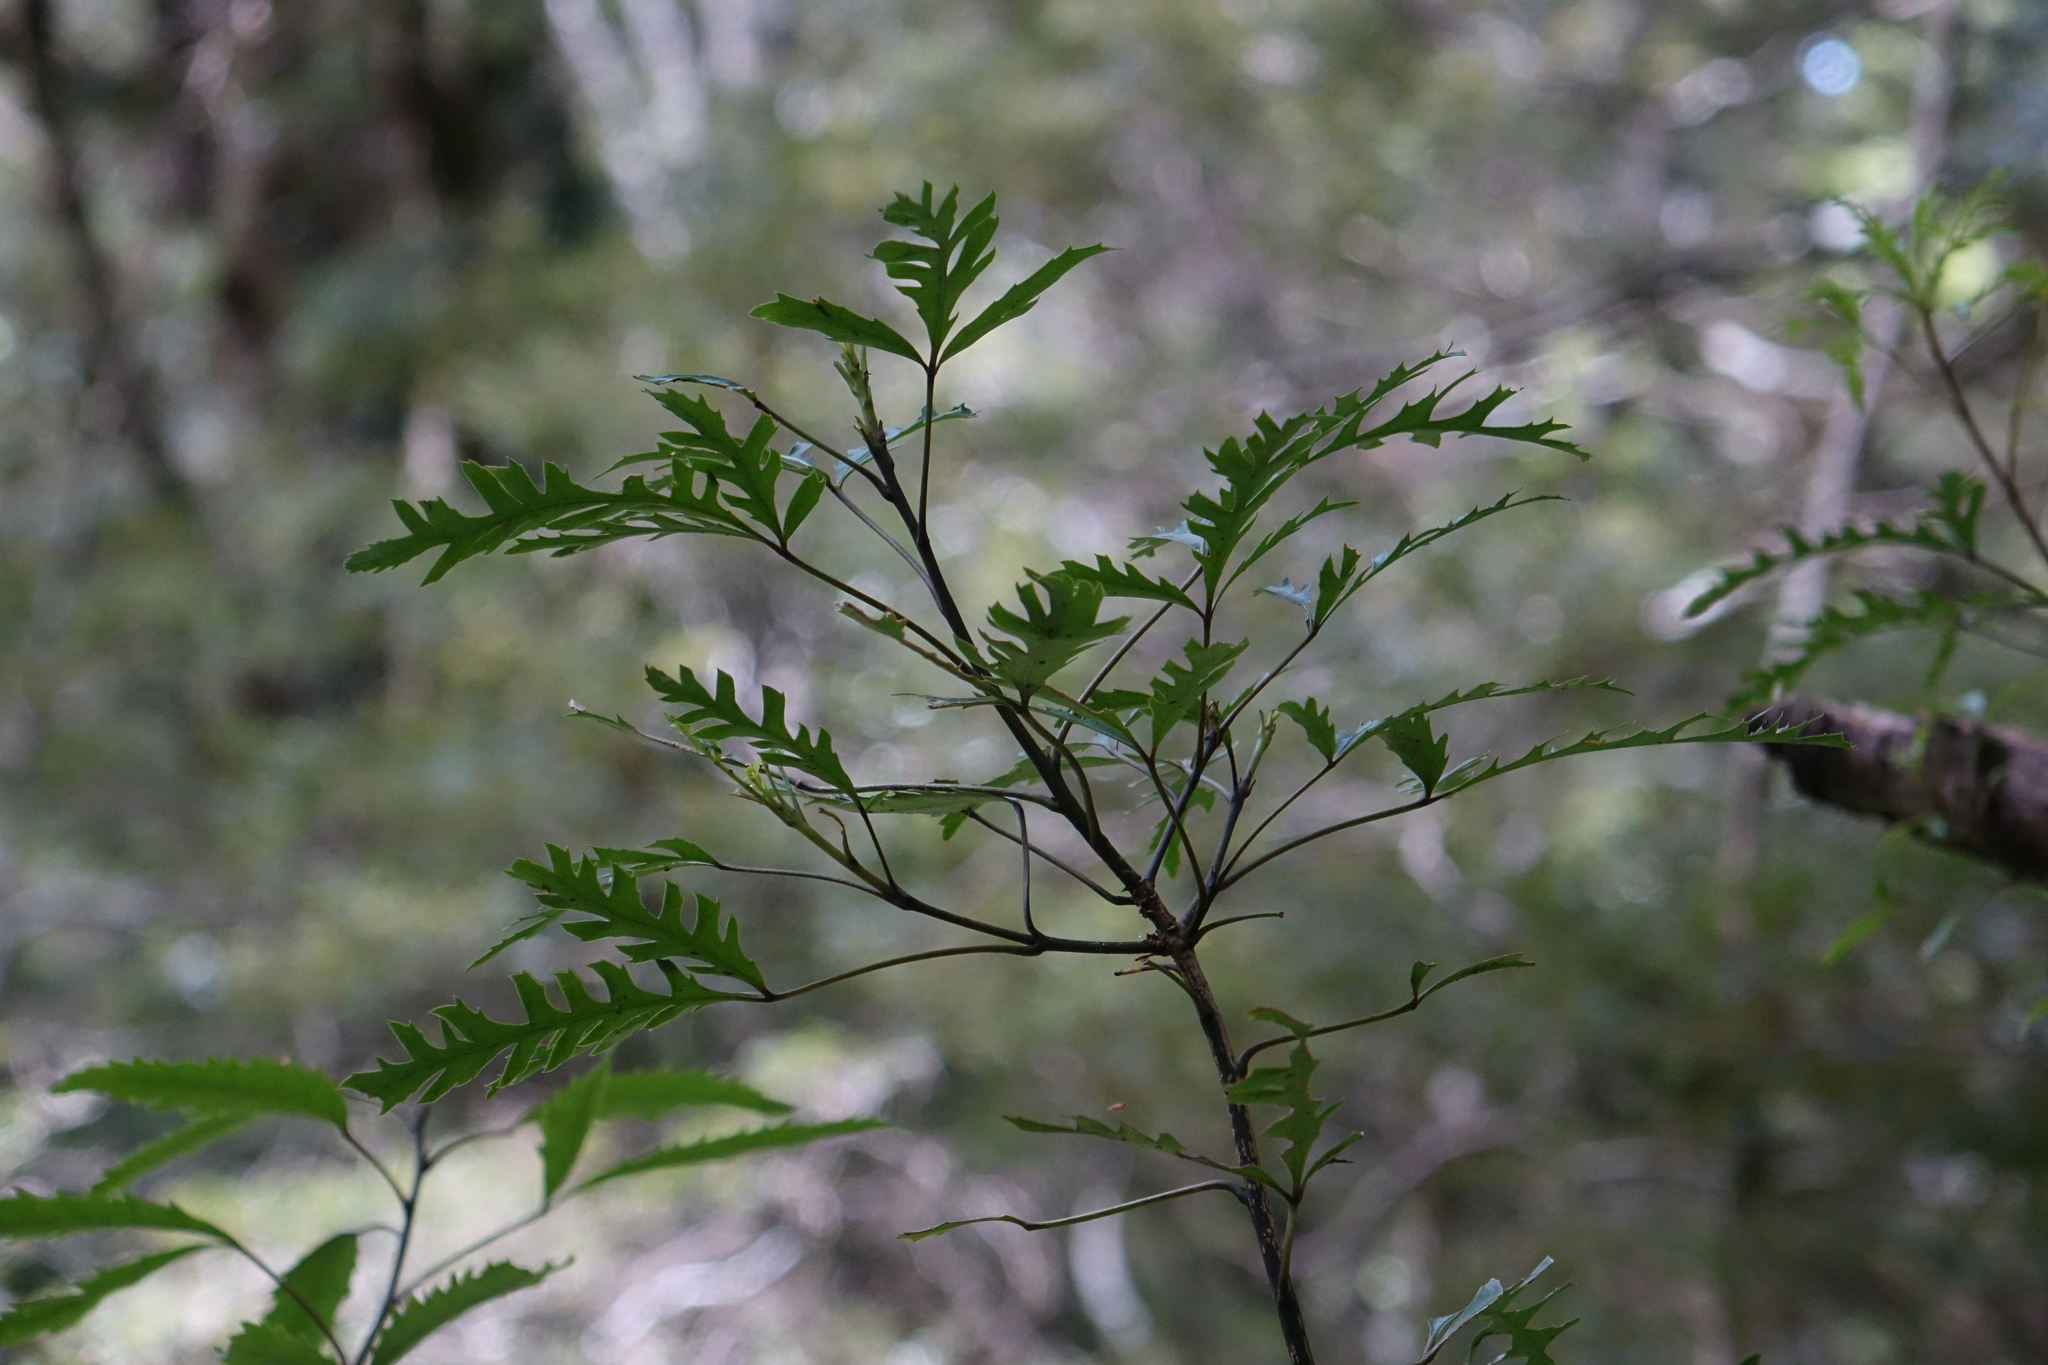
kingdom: Plantae
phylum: Tracheophyta
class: Magnoliopsida
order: Apiales
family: Araliaceae
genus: Raukaua
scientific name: Raukaua simplex
